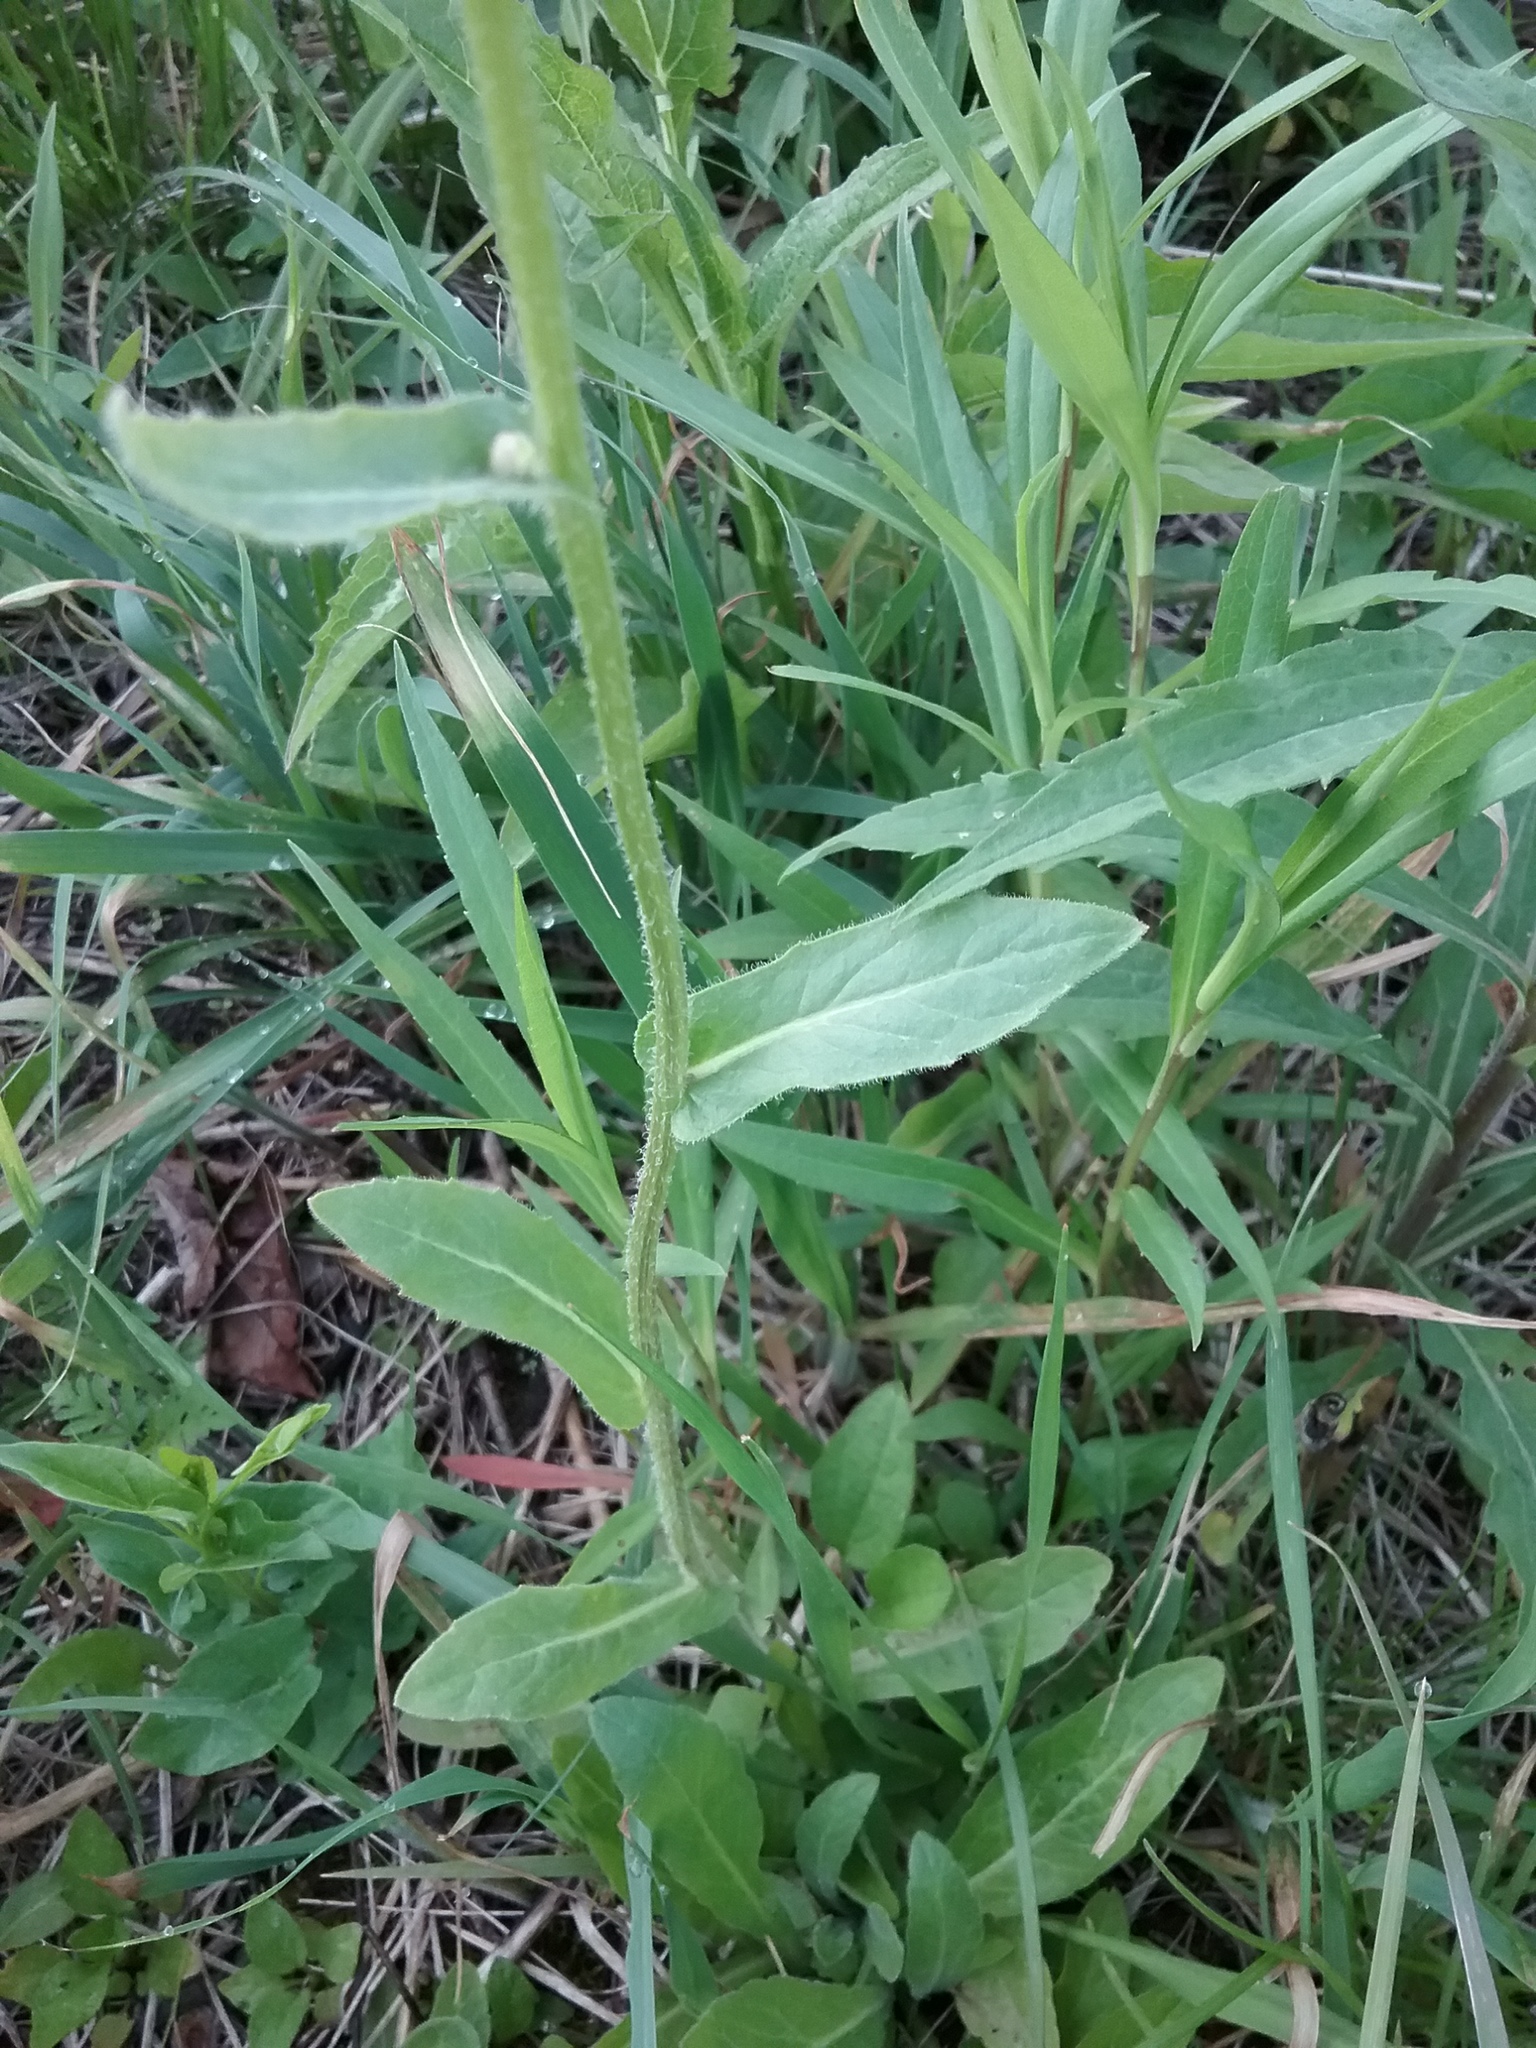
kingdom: Plantae
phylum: Tracheophyta
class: Magnoliopsida
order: Asterales
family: Asteraceae
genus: Erigeron
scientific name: Erigeron philadelphicus
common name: Robin's-plantain
